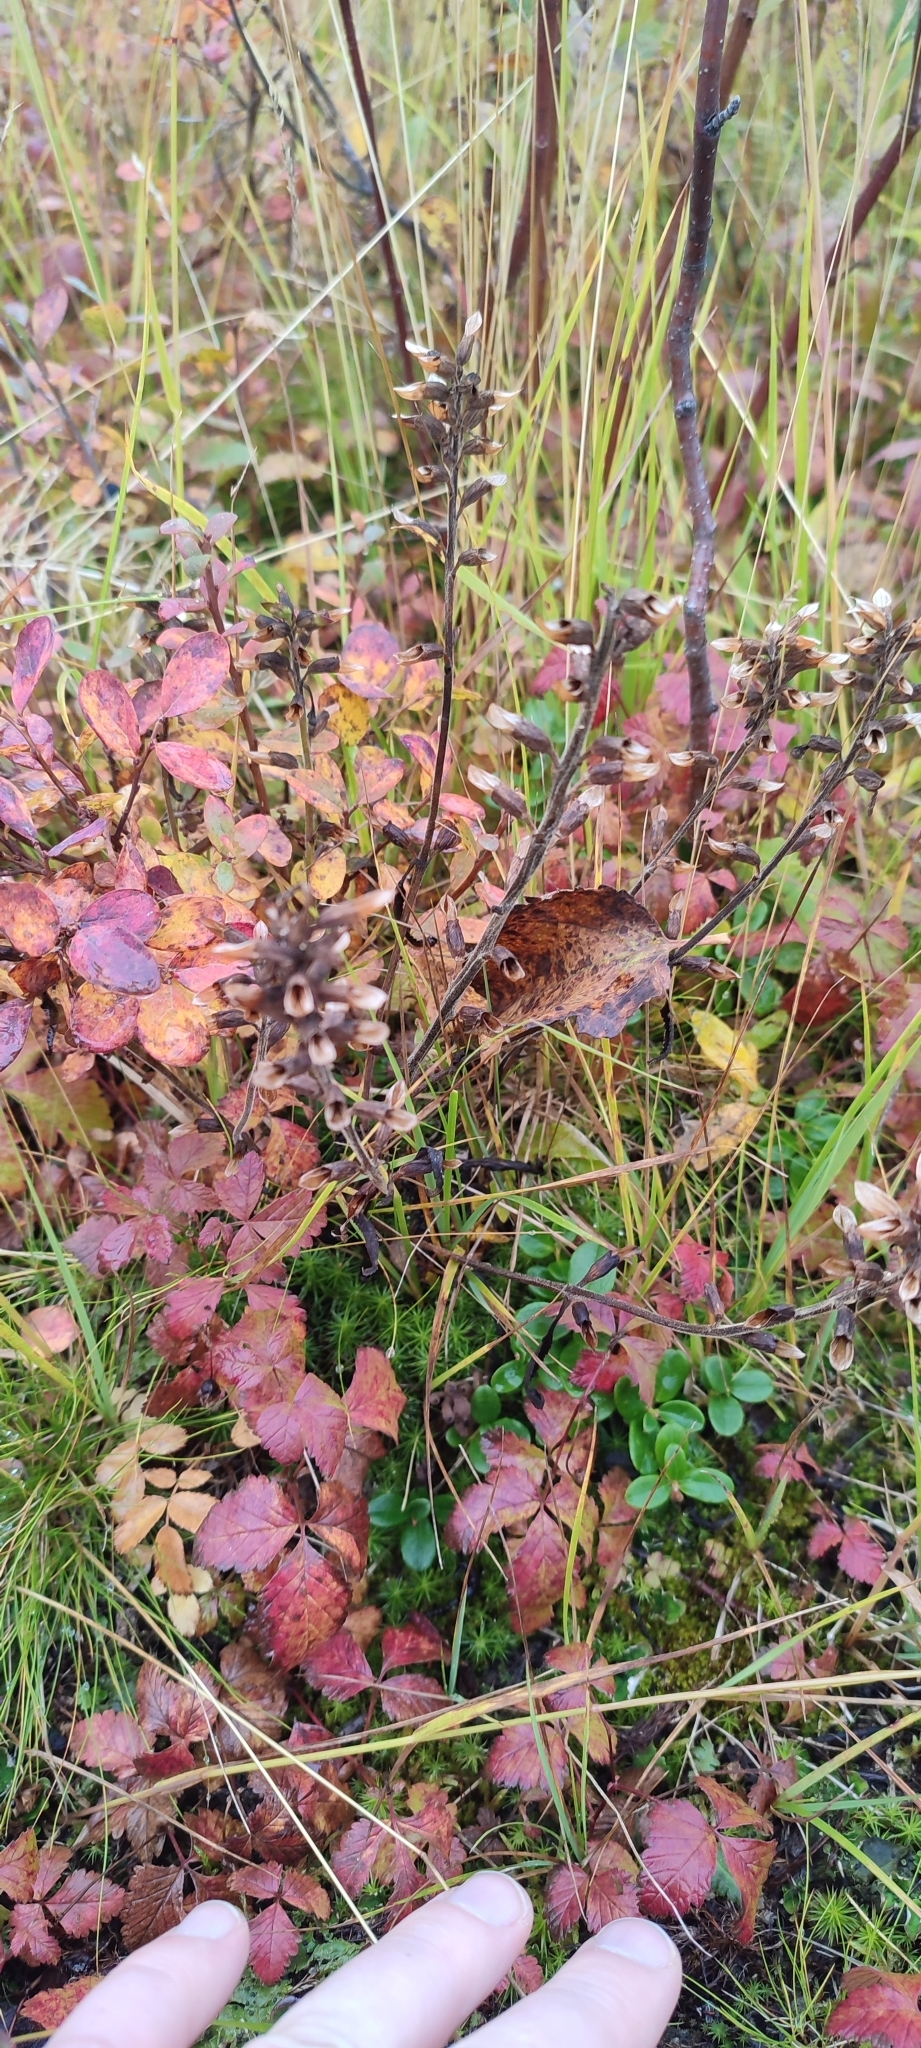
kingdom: Plantae
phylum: Tracheophyta
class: Magnoliopsida
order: Lamiales
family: Orobanchaceae
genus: Pedicularis
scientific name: Pedicularis labradorica
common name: Labrador lousewort
